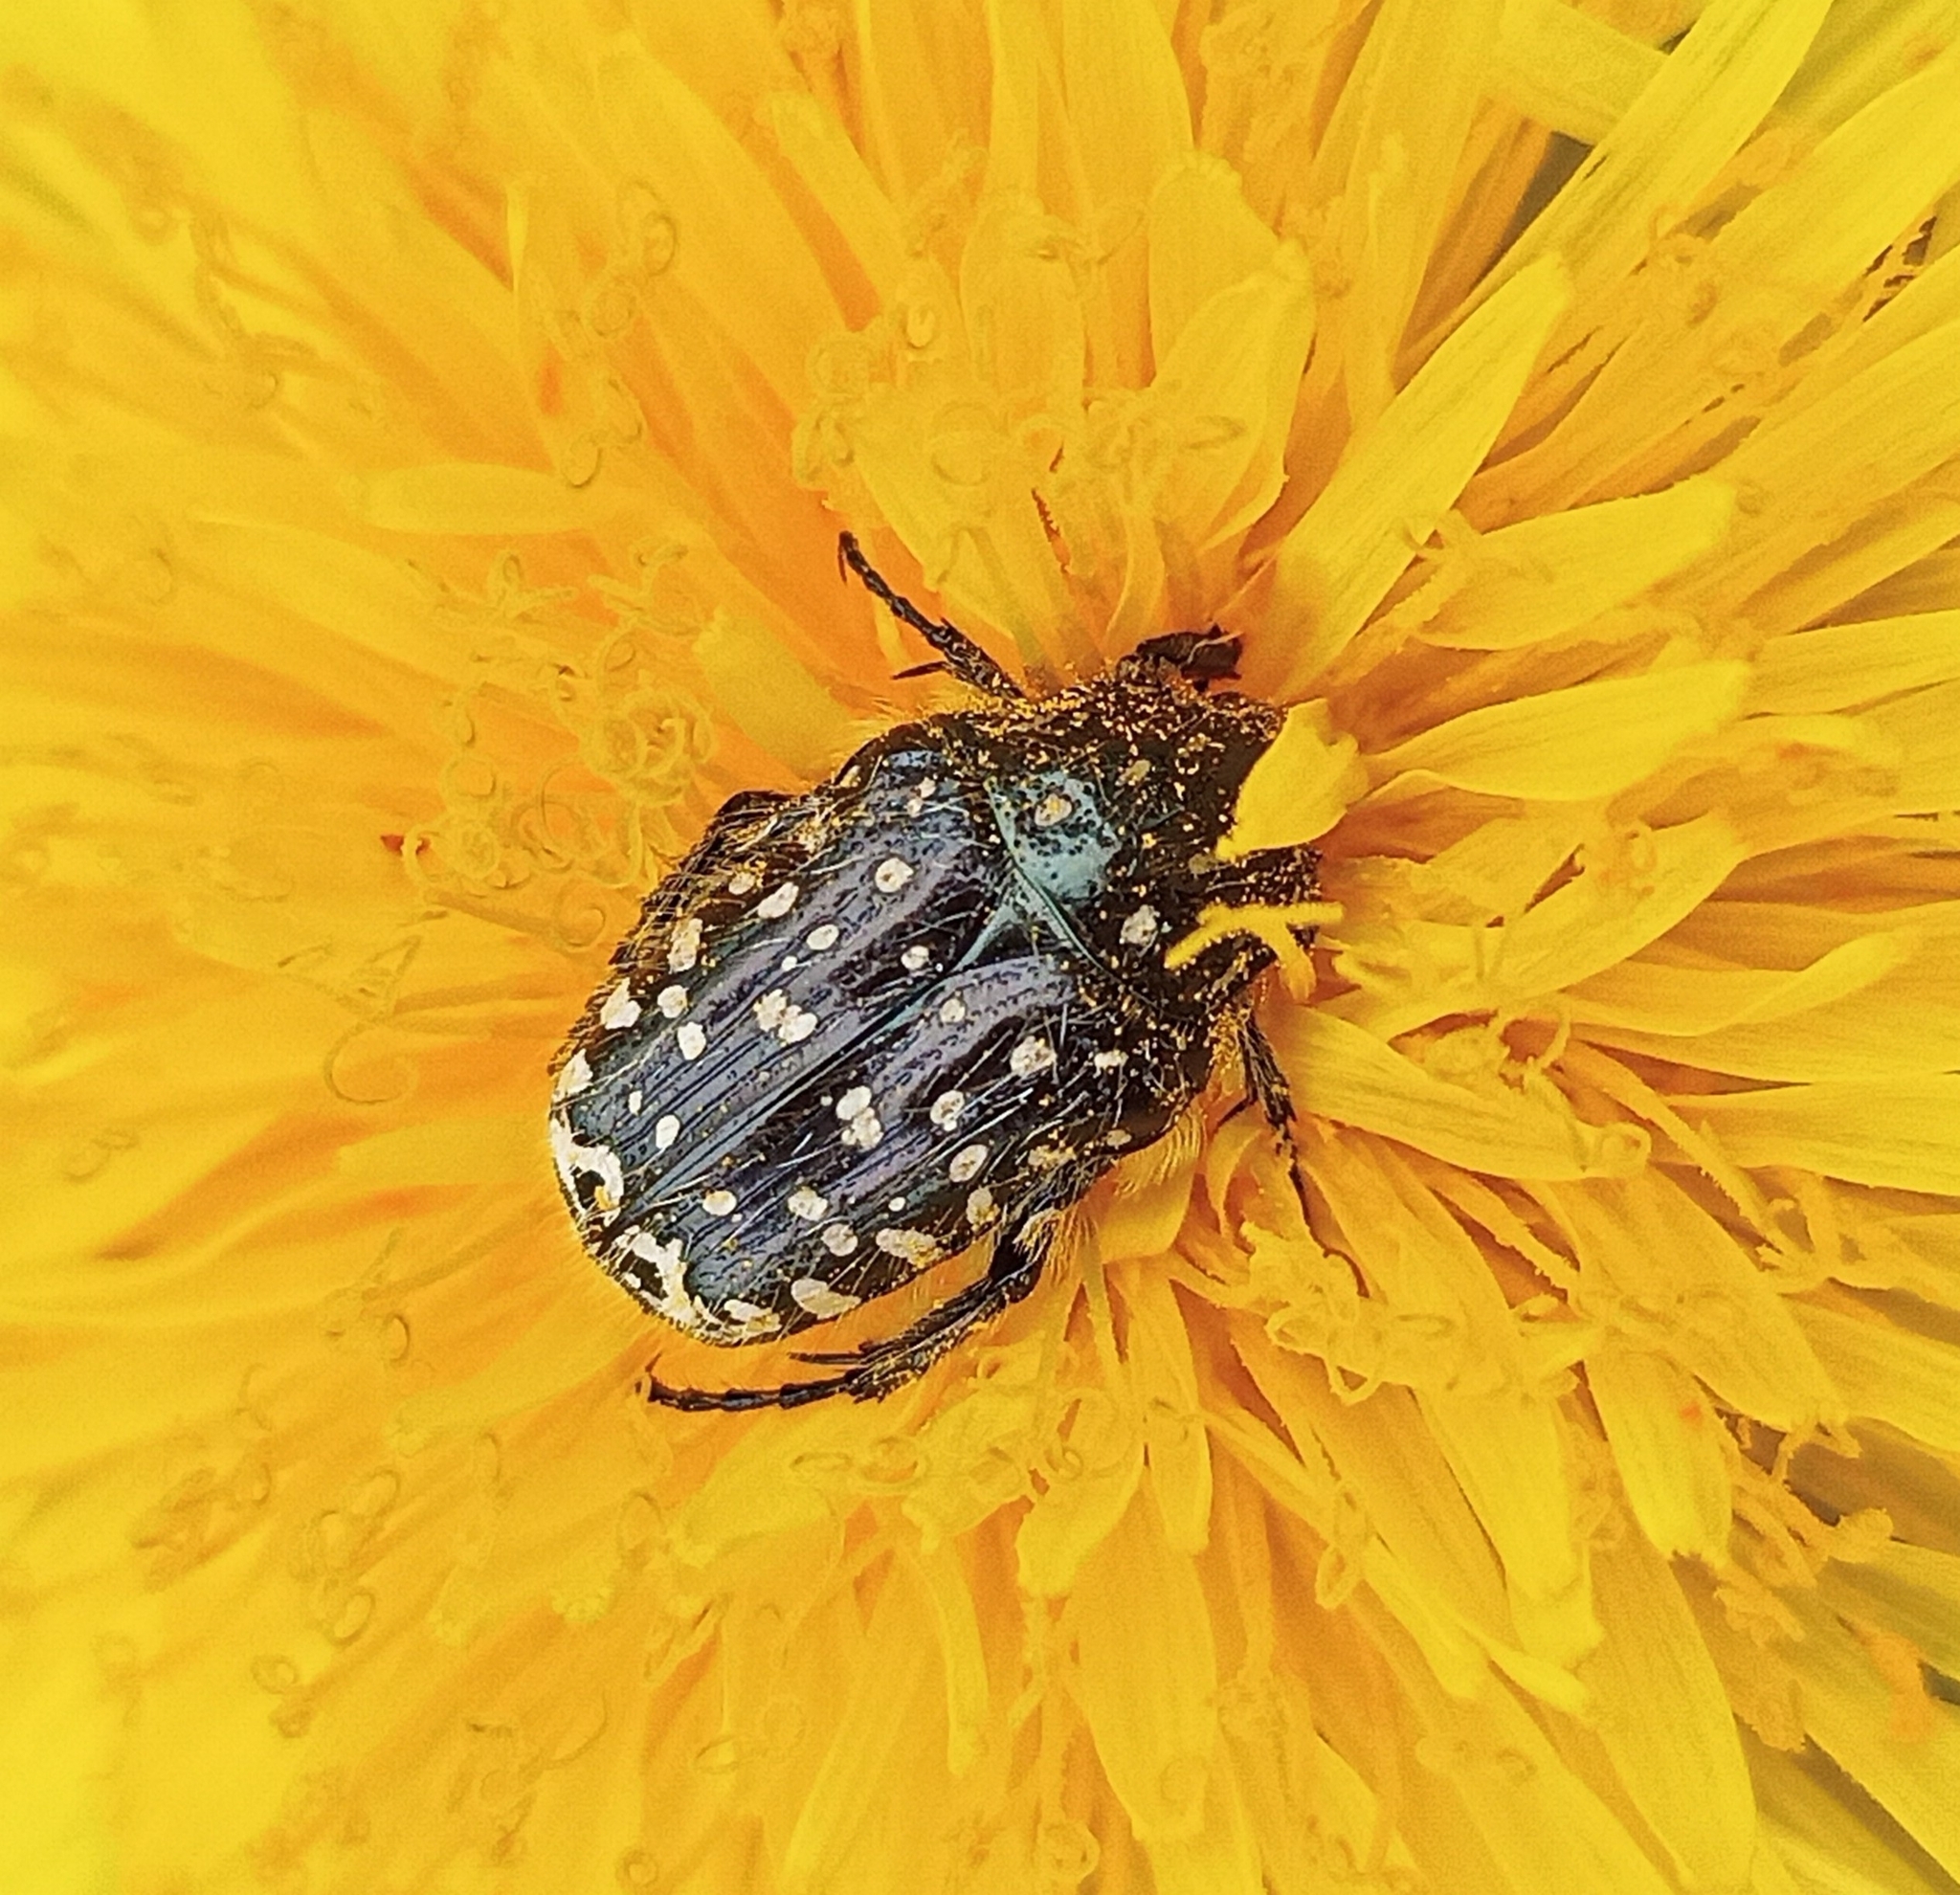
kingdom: Animalia
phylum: Arthropoda
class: Insecta
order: Coleoptera
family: Scarabaeidae
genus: Oxythyrea
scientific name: Oxythyrea funesta
